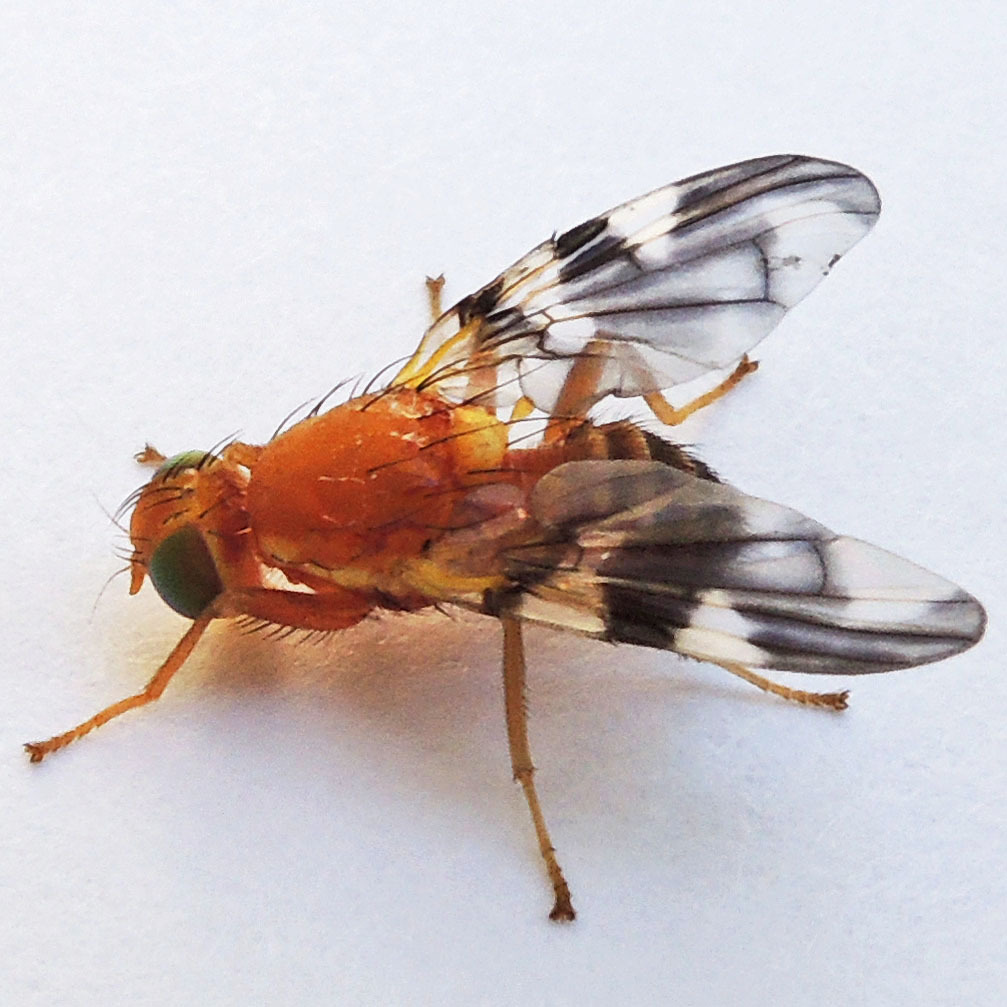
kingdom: Animalia
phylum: Arthropoda
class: Insecta
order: Diptera
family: Tephritidae
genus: Rhagoletis
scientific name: Rhagoletis suavis
